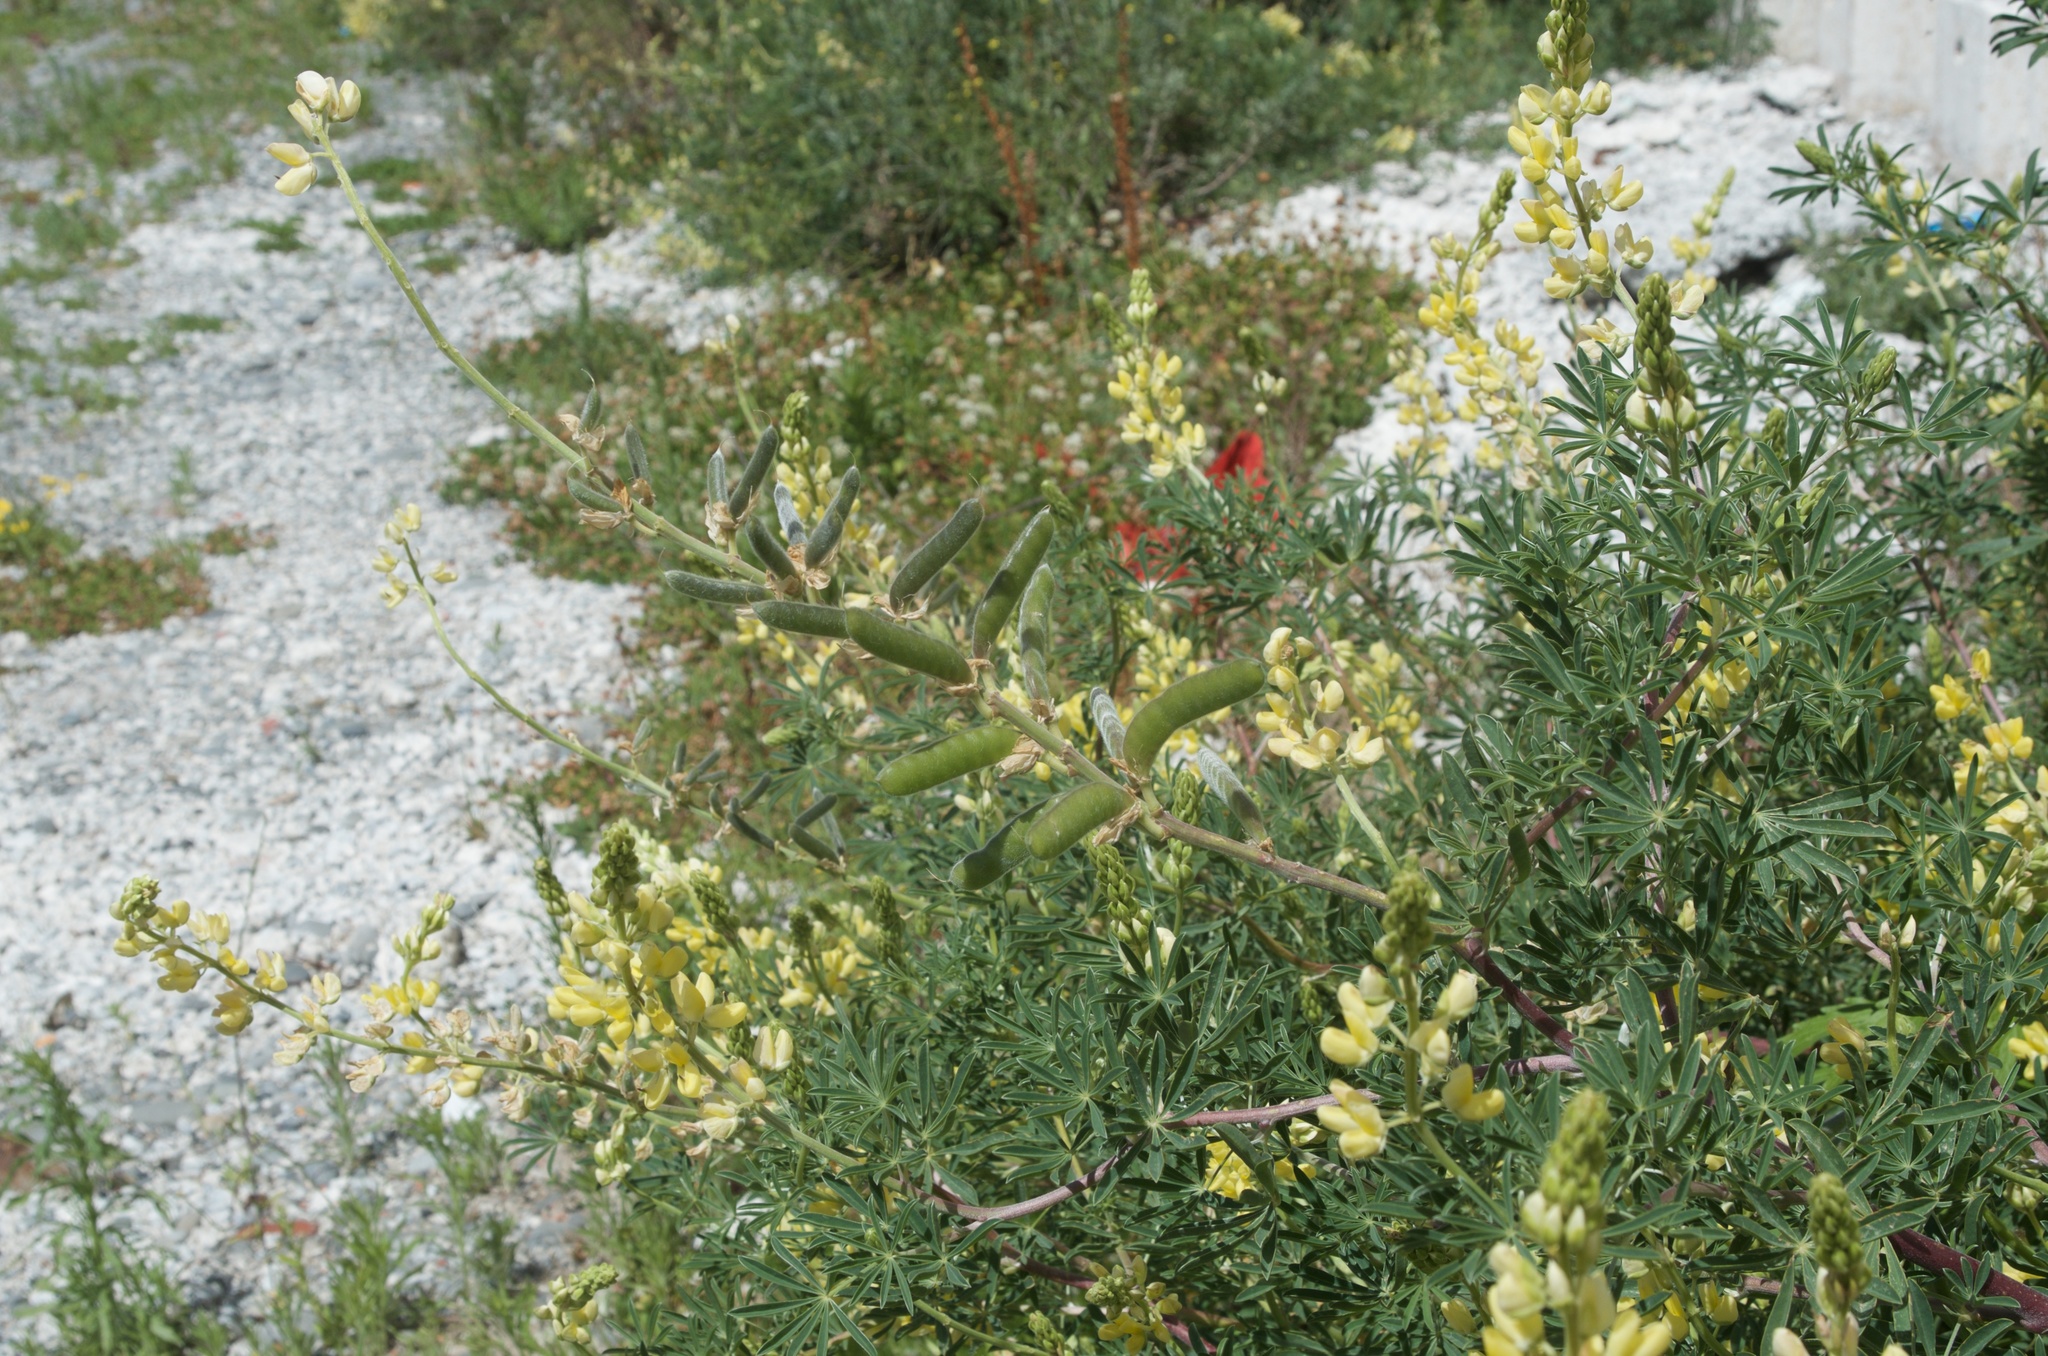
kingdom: Plantae
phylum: Tracheophyta
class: Magnoliopsida
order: Fabales
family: Fabaceae
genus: Lupinus
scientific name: Lupinus arboreus
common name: Yellow bush lupine
